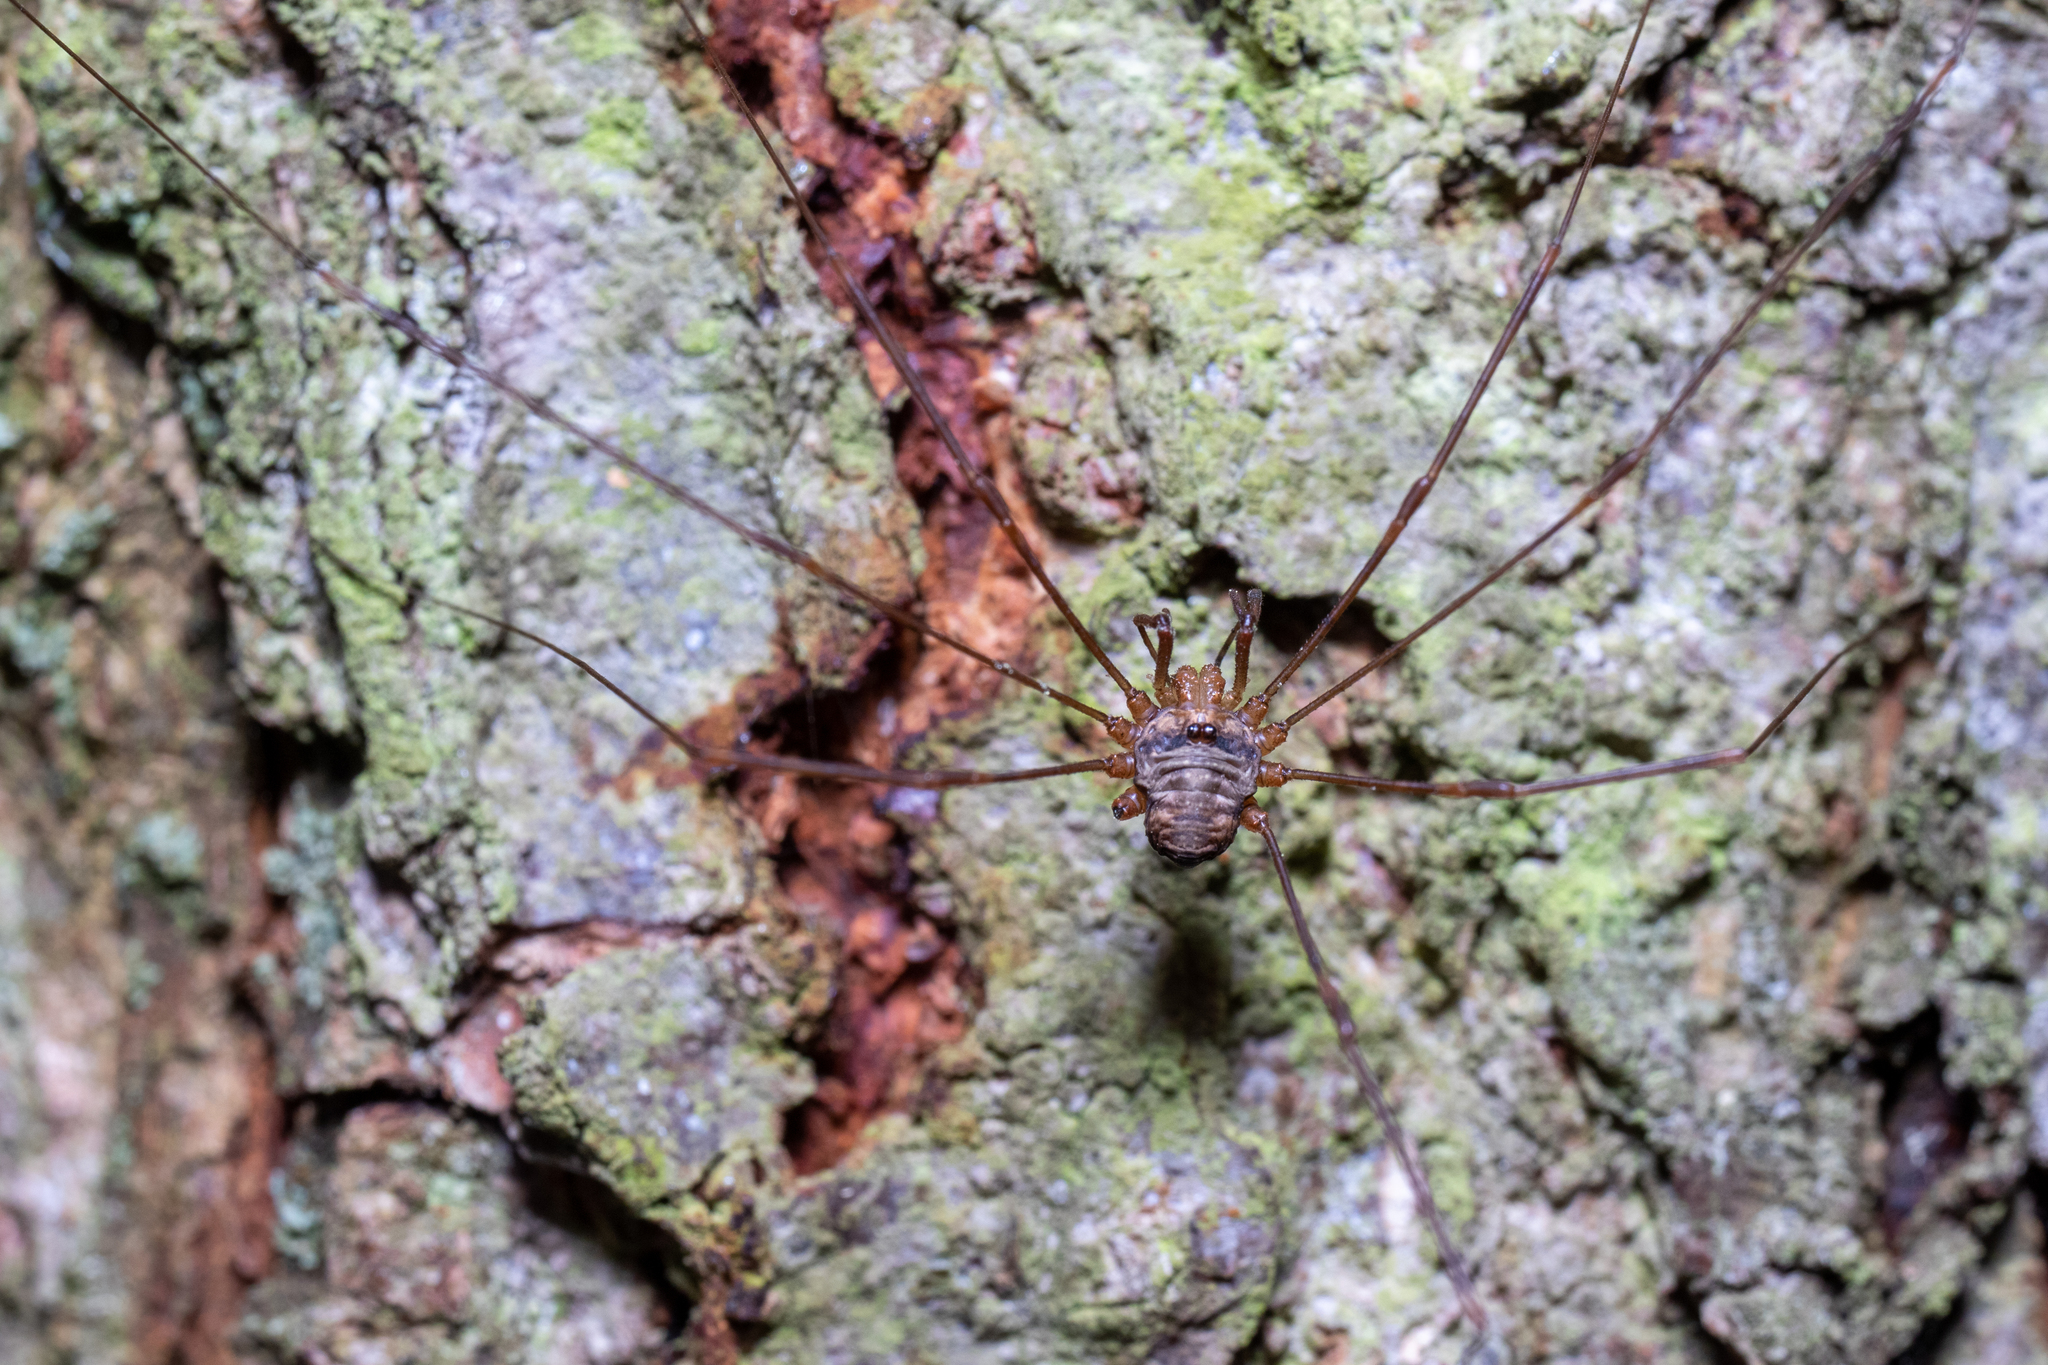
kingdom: Animalia
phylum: Arthropoda
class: Arachnida
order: Opiliones
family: Phalangiidae
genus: Dicranopalpus
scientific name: Dicranopalpus ramosus
